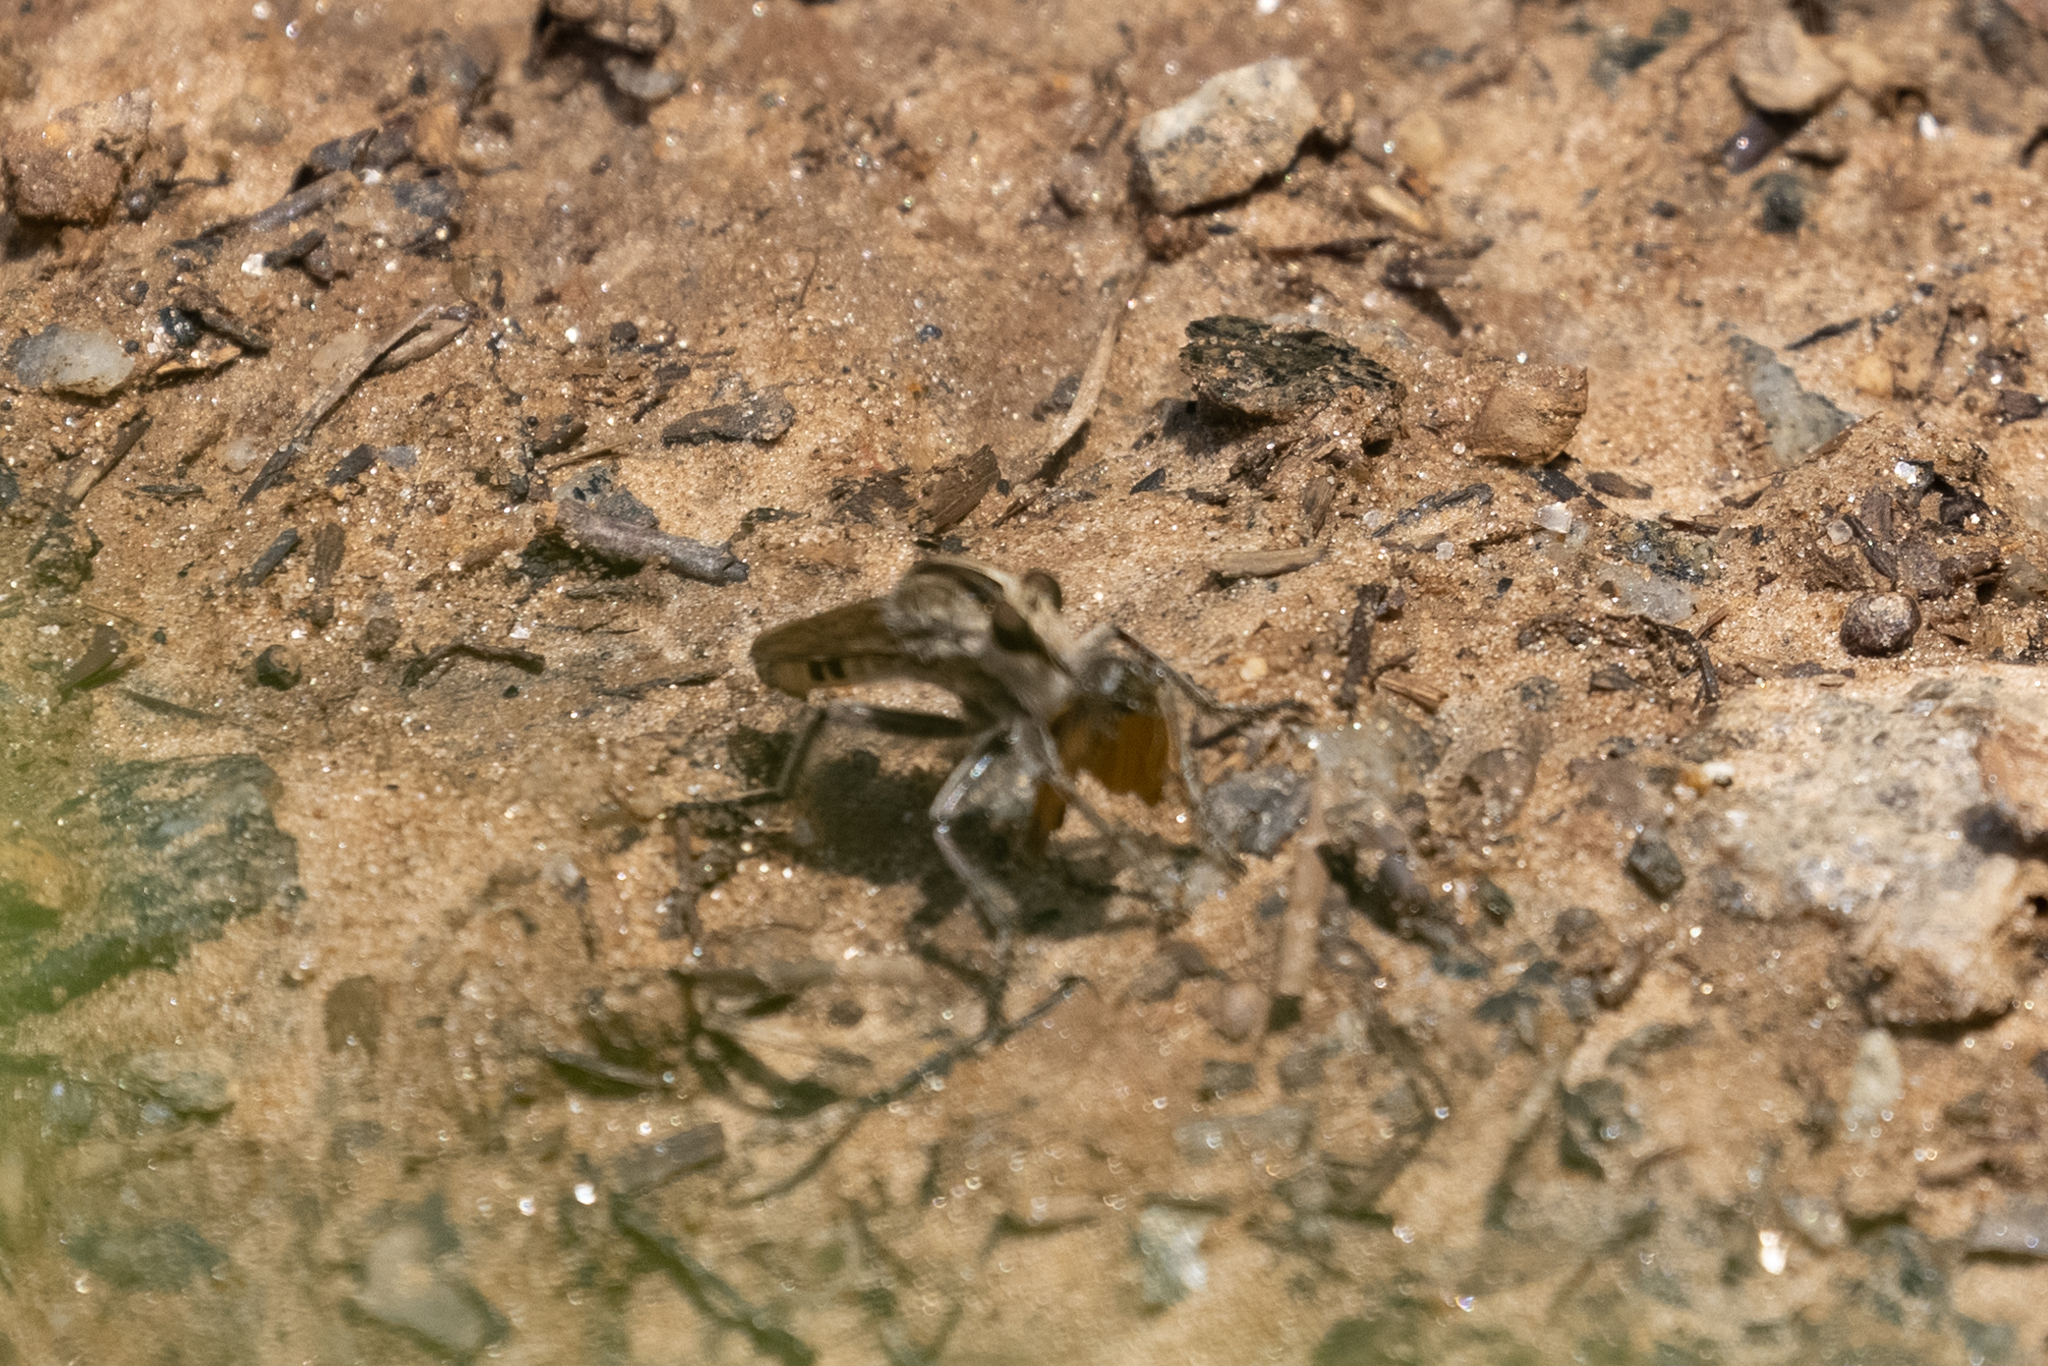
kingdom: Animalia
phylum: Arthropoda
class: Insecta
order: Diptera
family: Asilidae
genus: Triorla
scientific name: Triorla interrupta
